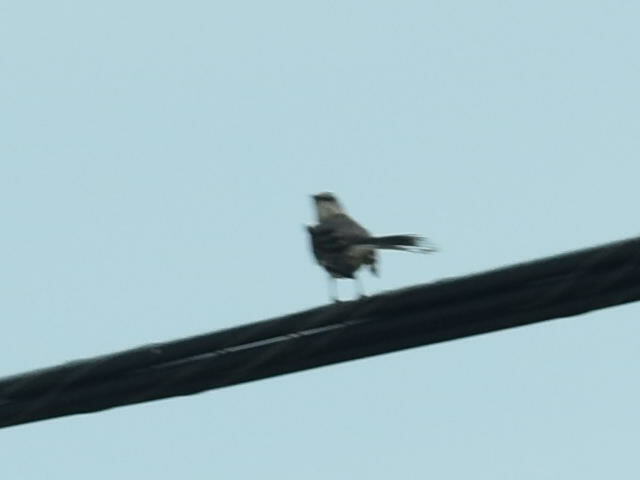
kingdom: Animalia
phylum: Chordata
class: Aves
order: Passeriformes
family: Mimidae
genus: Mimus
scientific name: Mimus polyglottos
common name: Northern mockingbird
